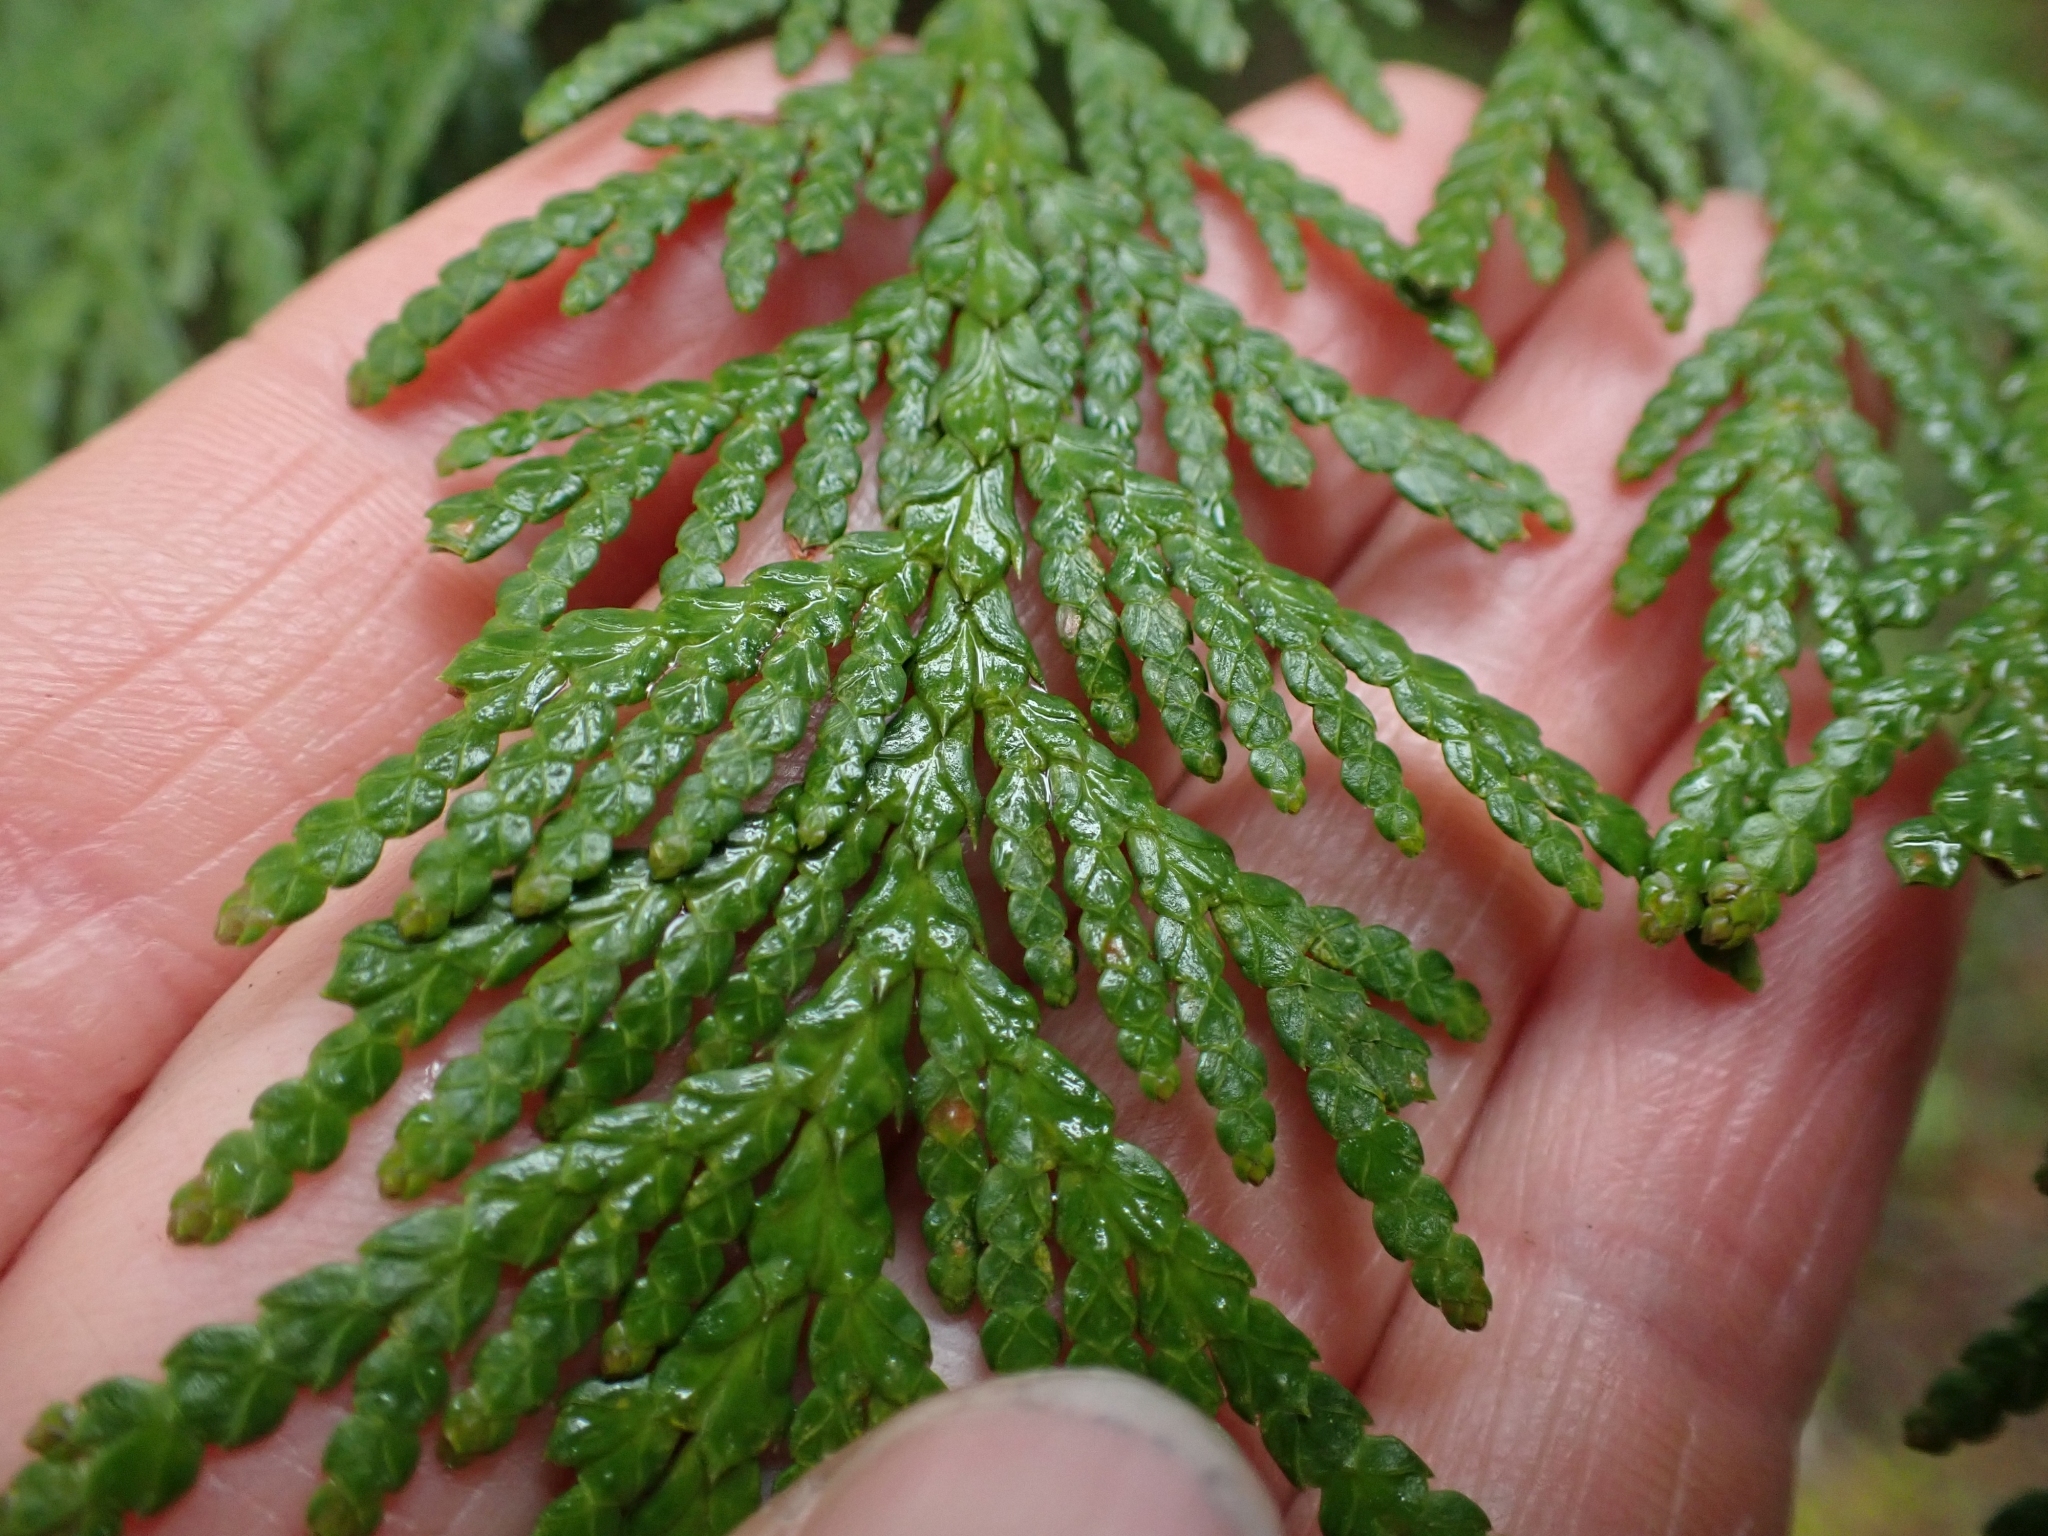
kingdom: Plantae
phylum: Tracheophyta
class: Pinopsida
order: Pinales
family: Cupressaceae
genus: Thuja
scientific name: Thuja plicata
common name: Western red-cedar
